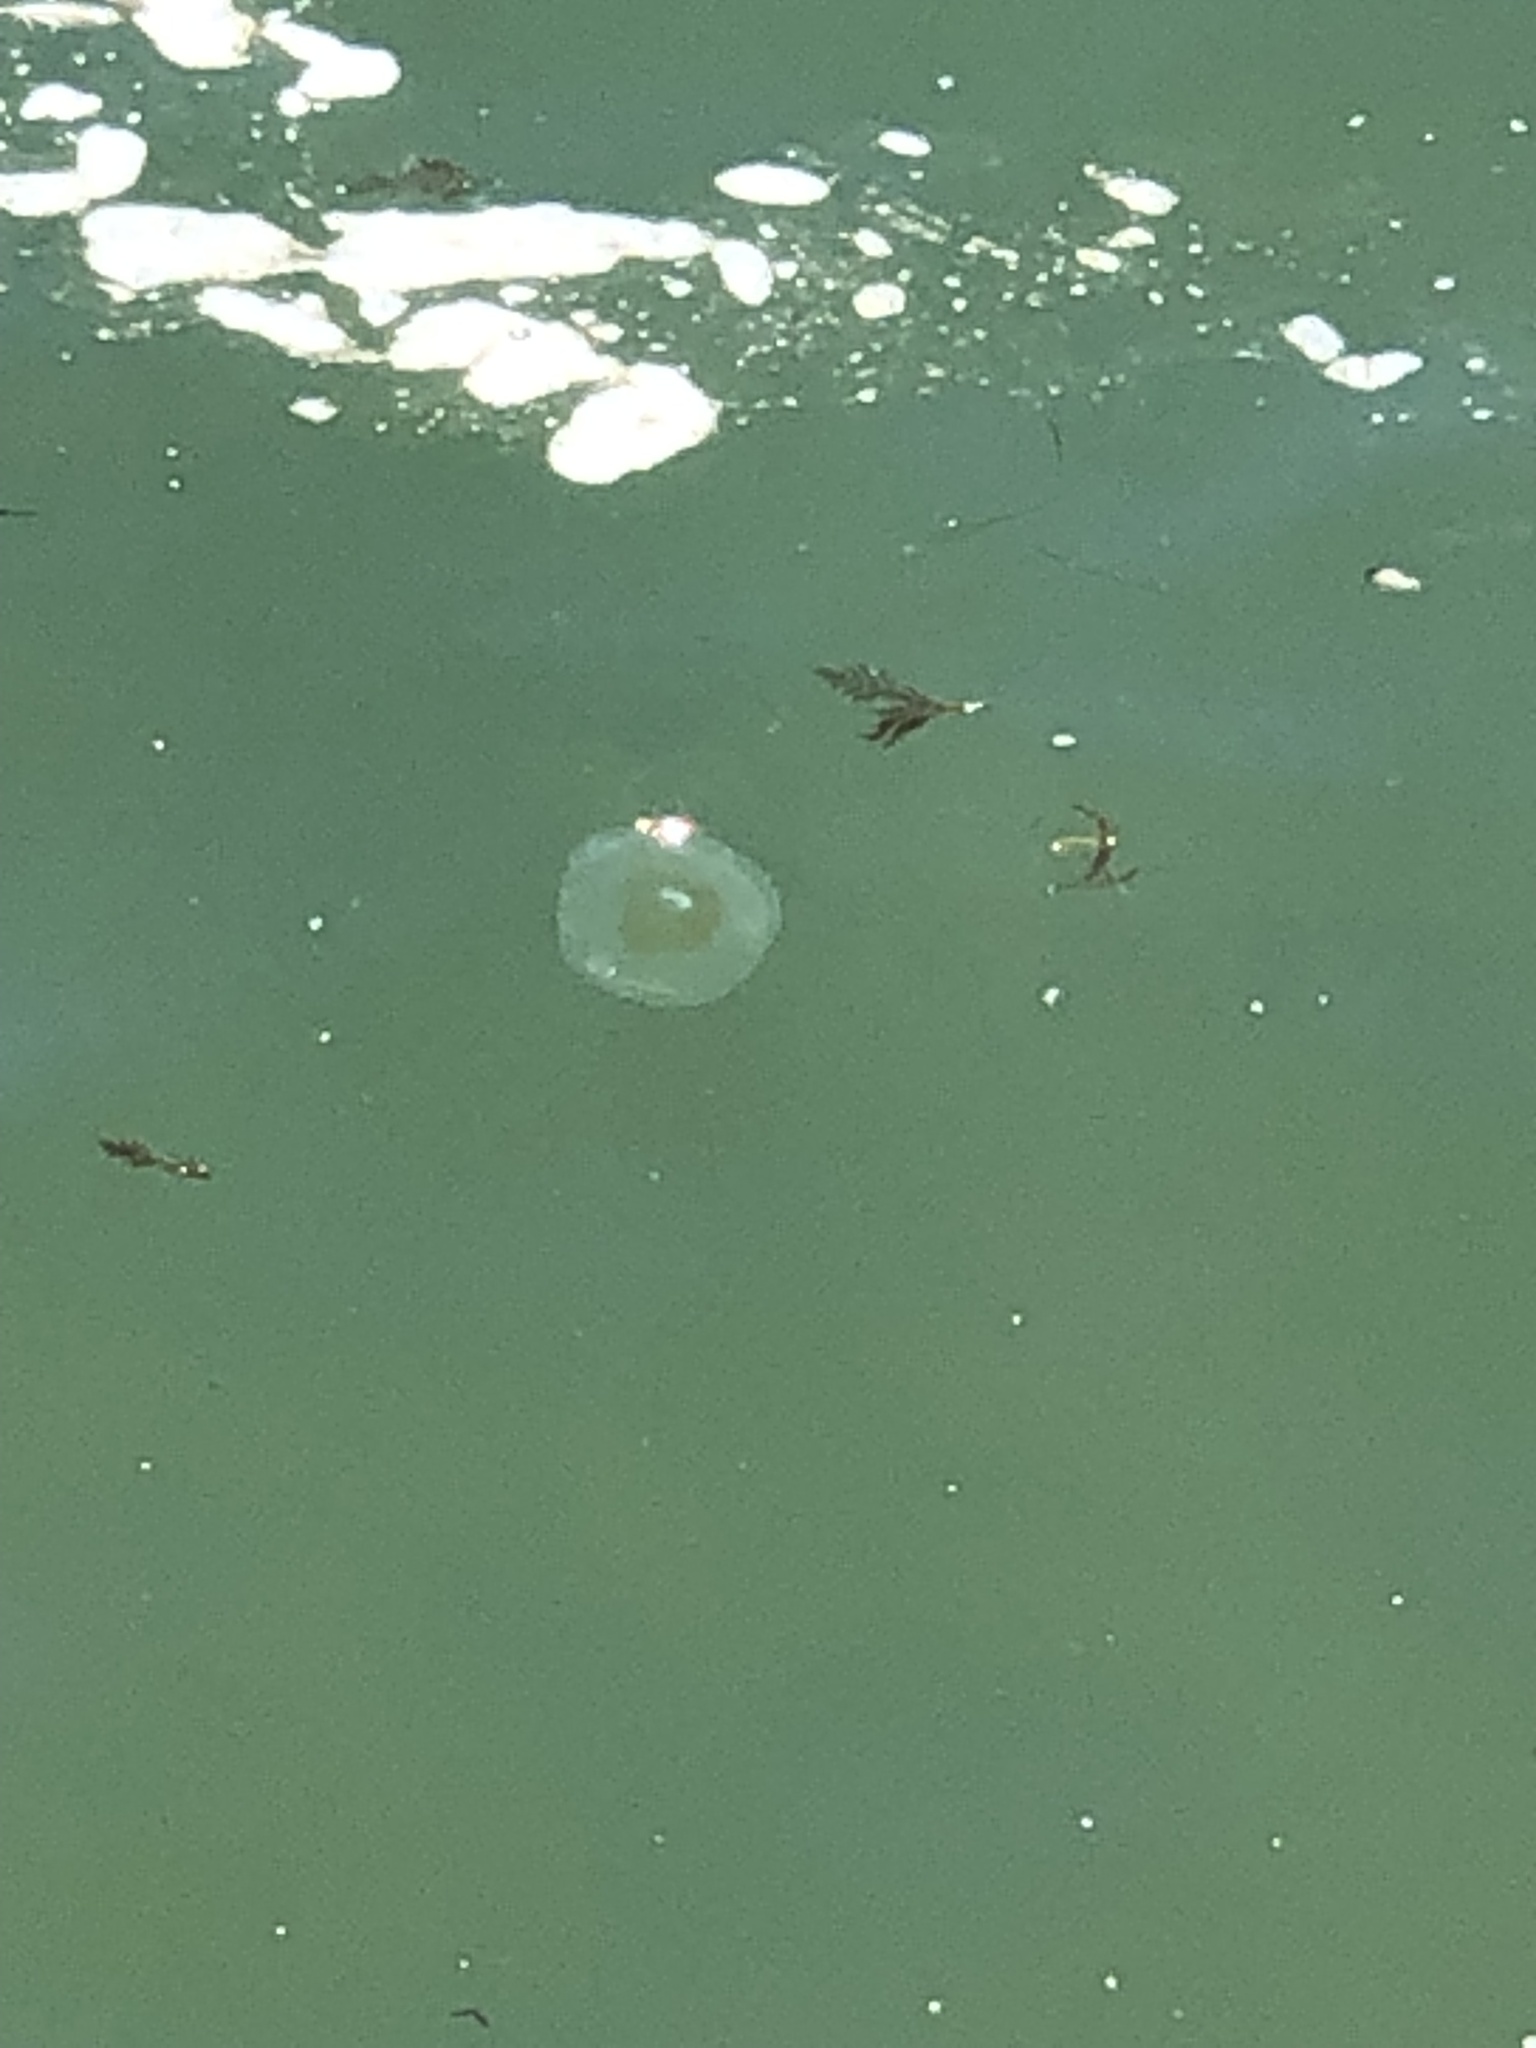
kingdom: Animalia
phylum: Cnidaria
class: Scyphozoa
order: Semaeostomeae
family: Ulmaridae
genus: Aurelia
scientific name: Aurelia labiata
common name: Pacific moon jelly
